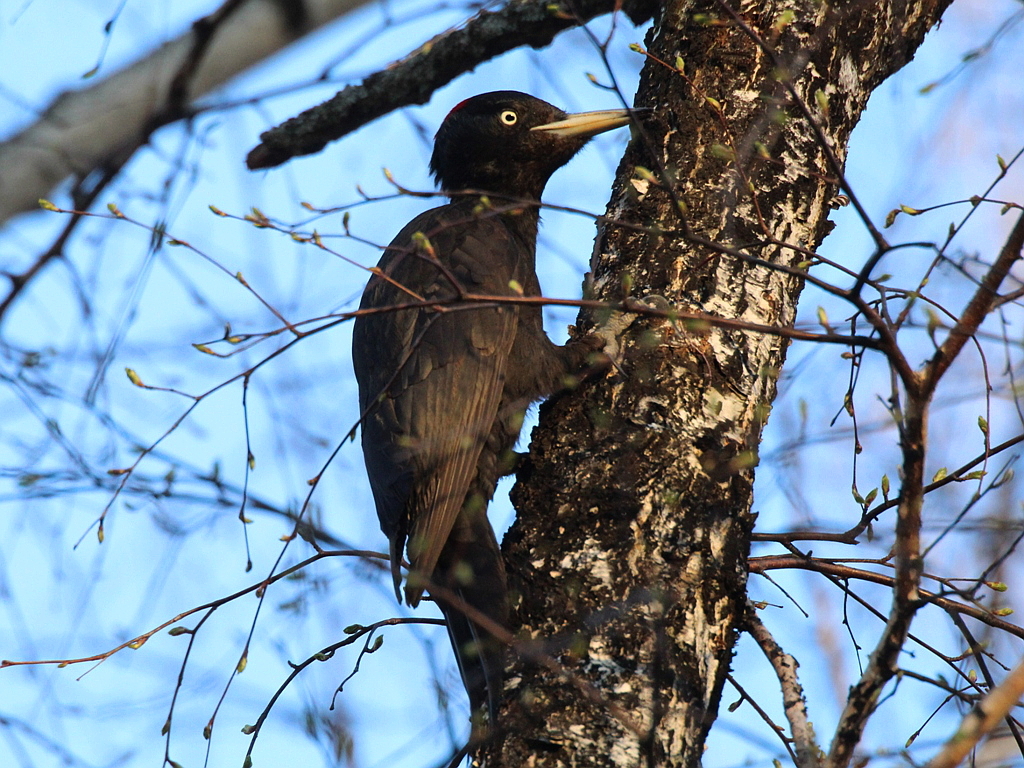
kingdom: Animalia
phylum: Chordata
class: Aves
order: Piciformes
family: Picidae
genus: Dryocopus
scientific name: Dryocopus martius
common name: Black woodpecker
